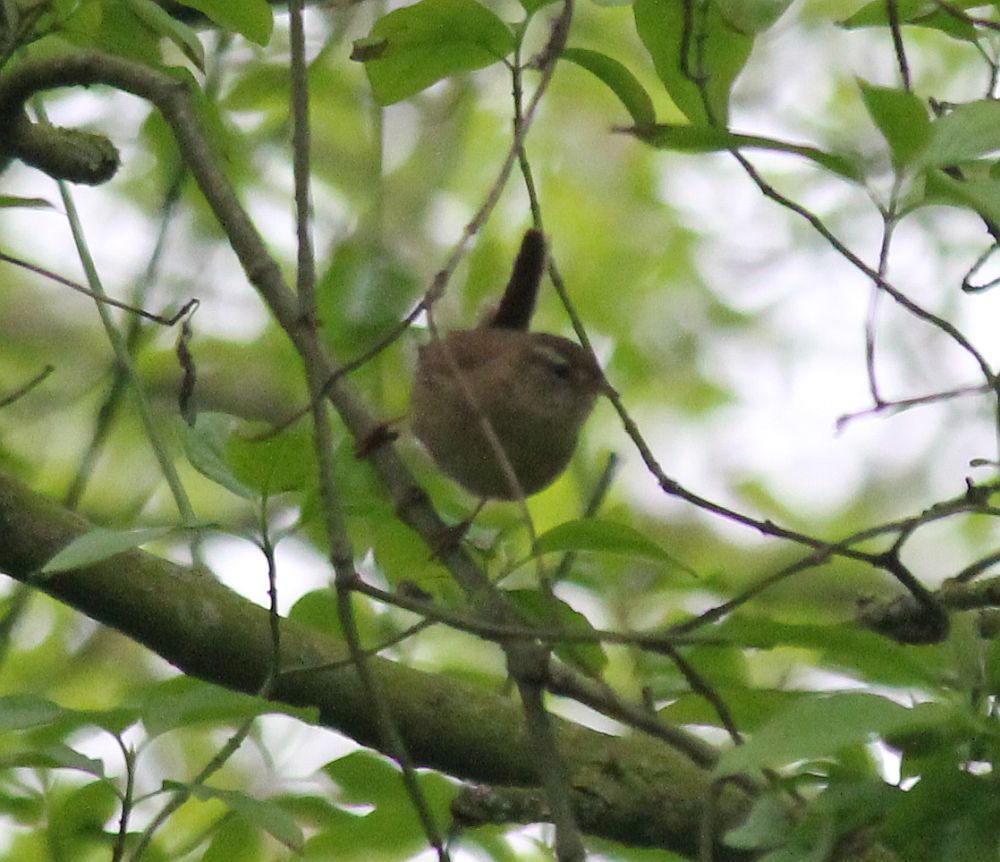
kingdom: Animalia
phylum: Chordata
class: Aves
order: Passeriformes
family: Troglodytidae
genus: Troglodytes
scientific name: Troglodytes troglodytes
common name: Eurasian wren
